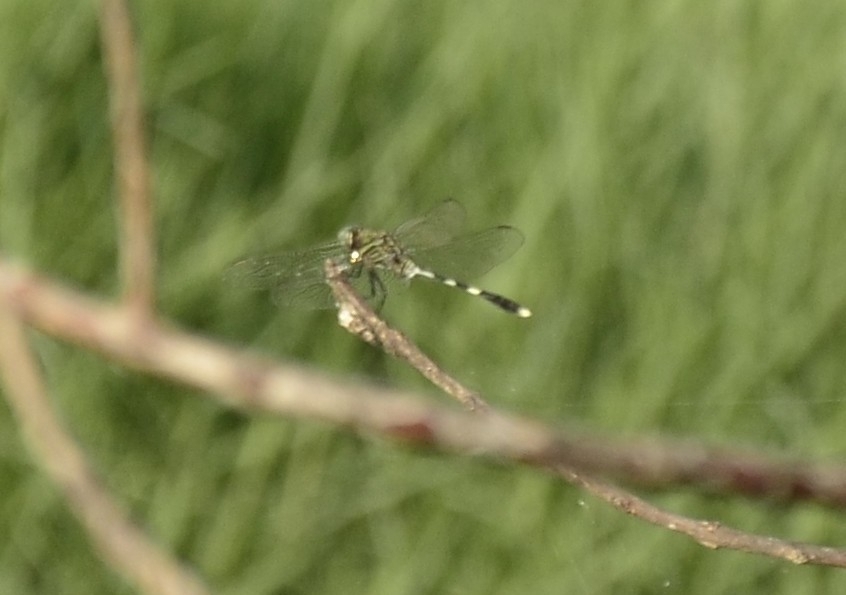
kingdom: Animalia
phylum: Arthropoda
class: Insecta
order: Odonata
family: Libellulidae
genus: Orthetrum
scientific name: Orthetrum sabina
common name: Slender skimmer
